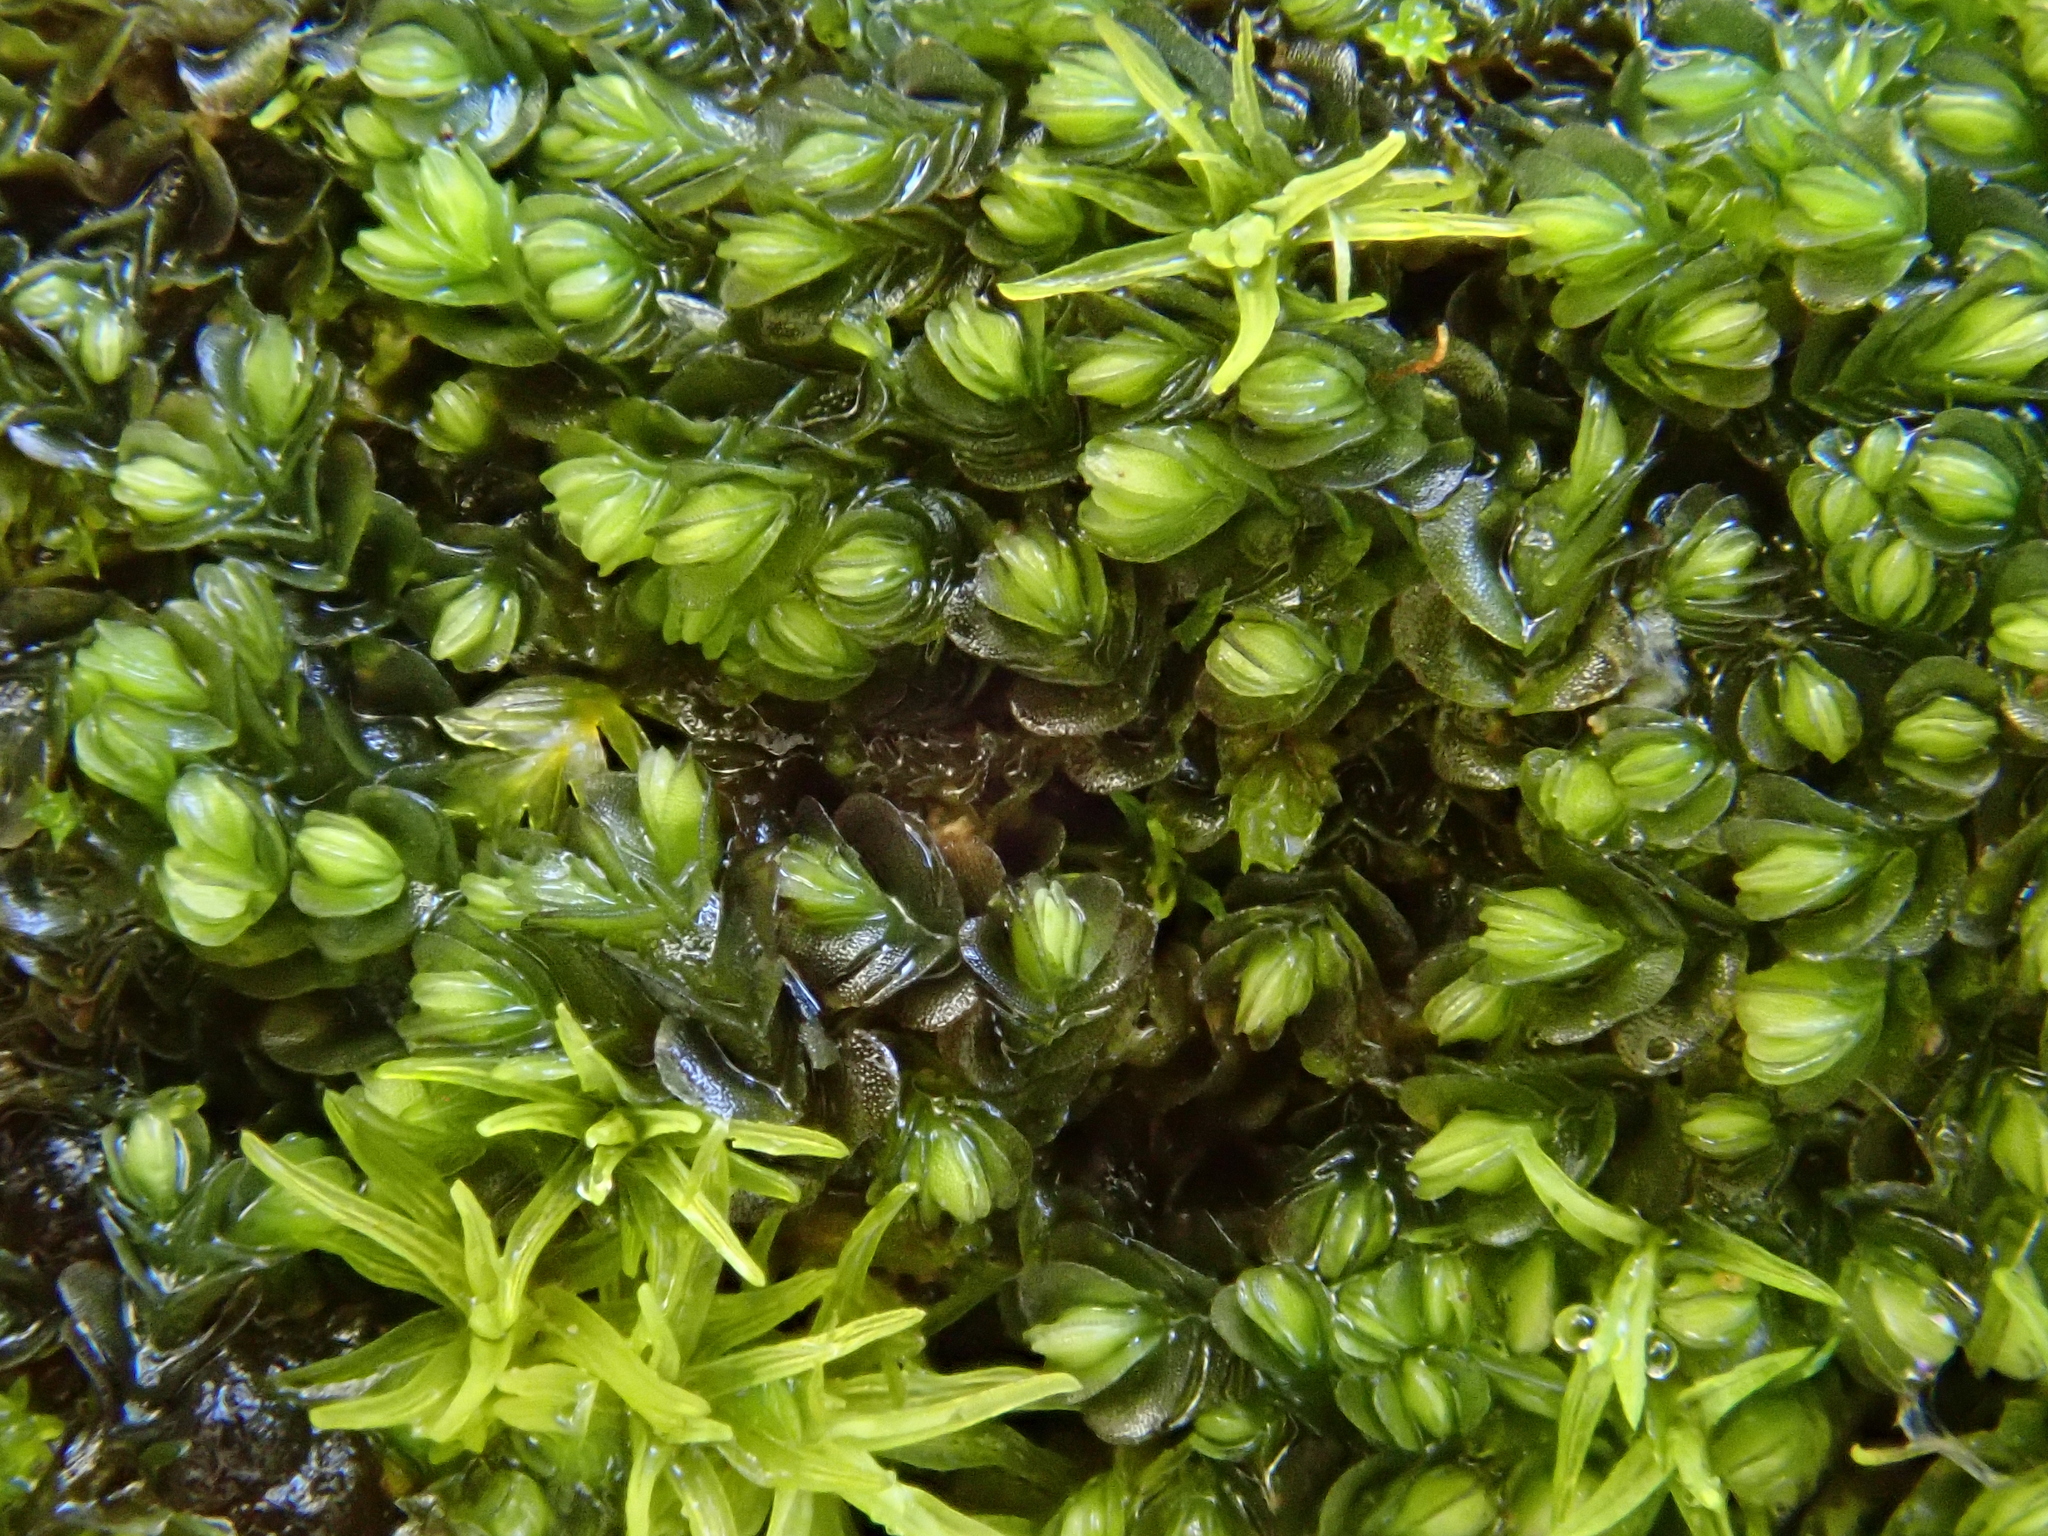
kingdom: Plantae
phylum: Marchantiophyta
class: Jungermanniopsida
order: Jungermanniales
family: Southbyaceae
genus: Southbya
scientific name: Southbya tophacea
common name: Green blackwort
